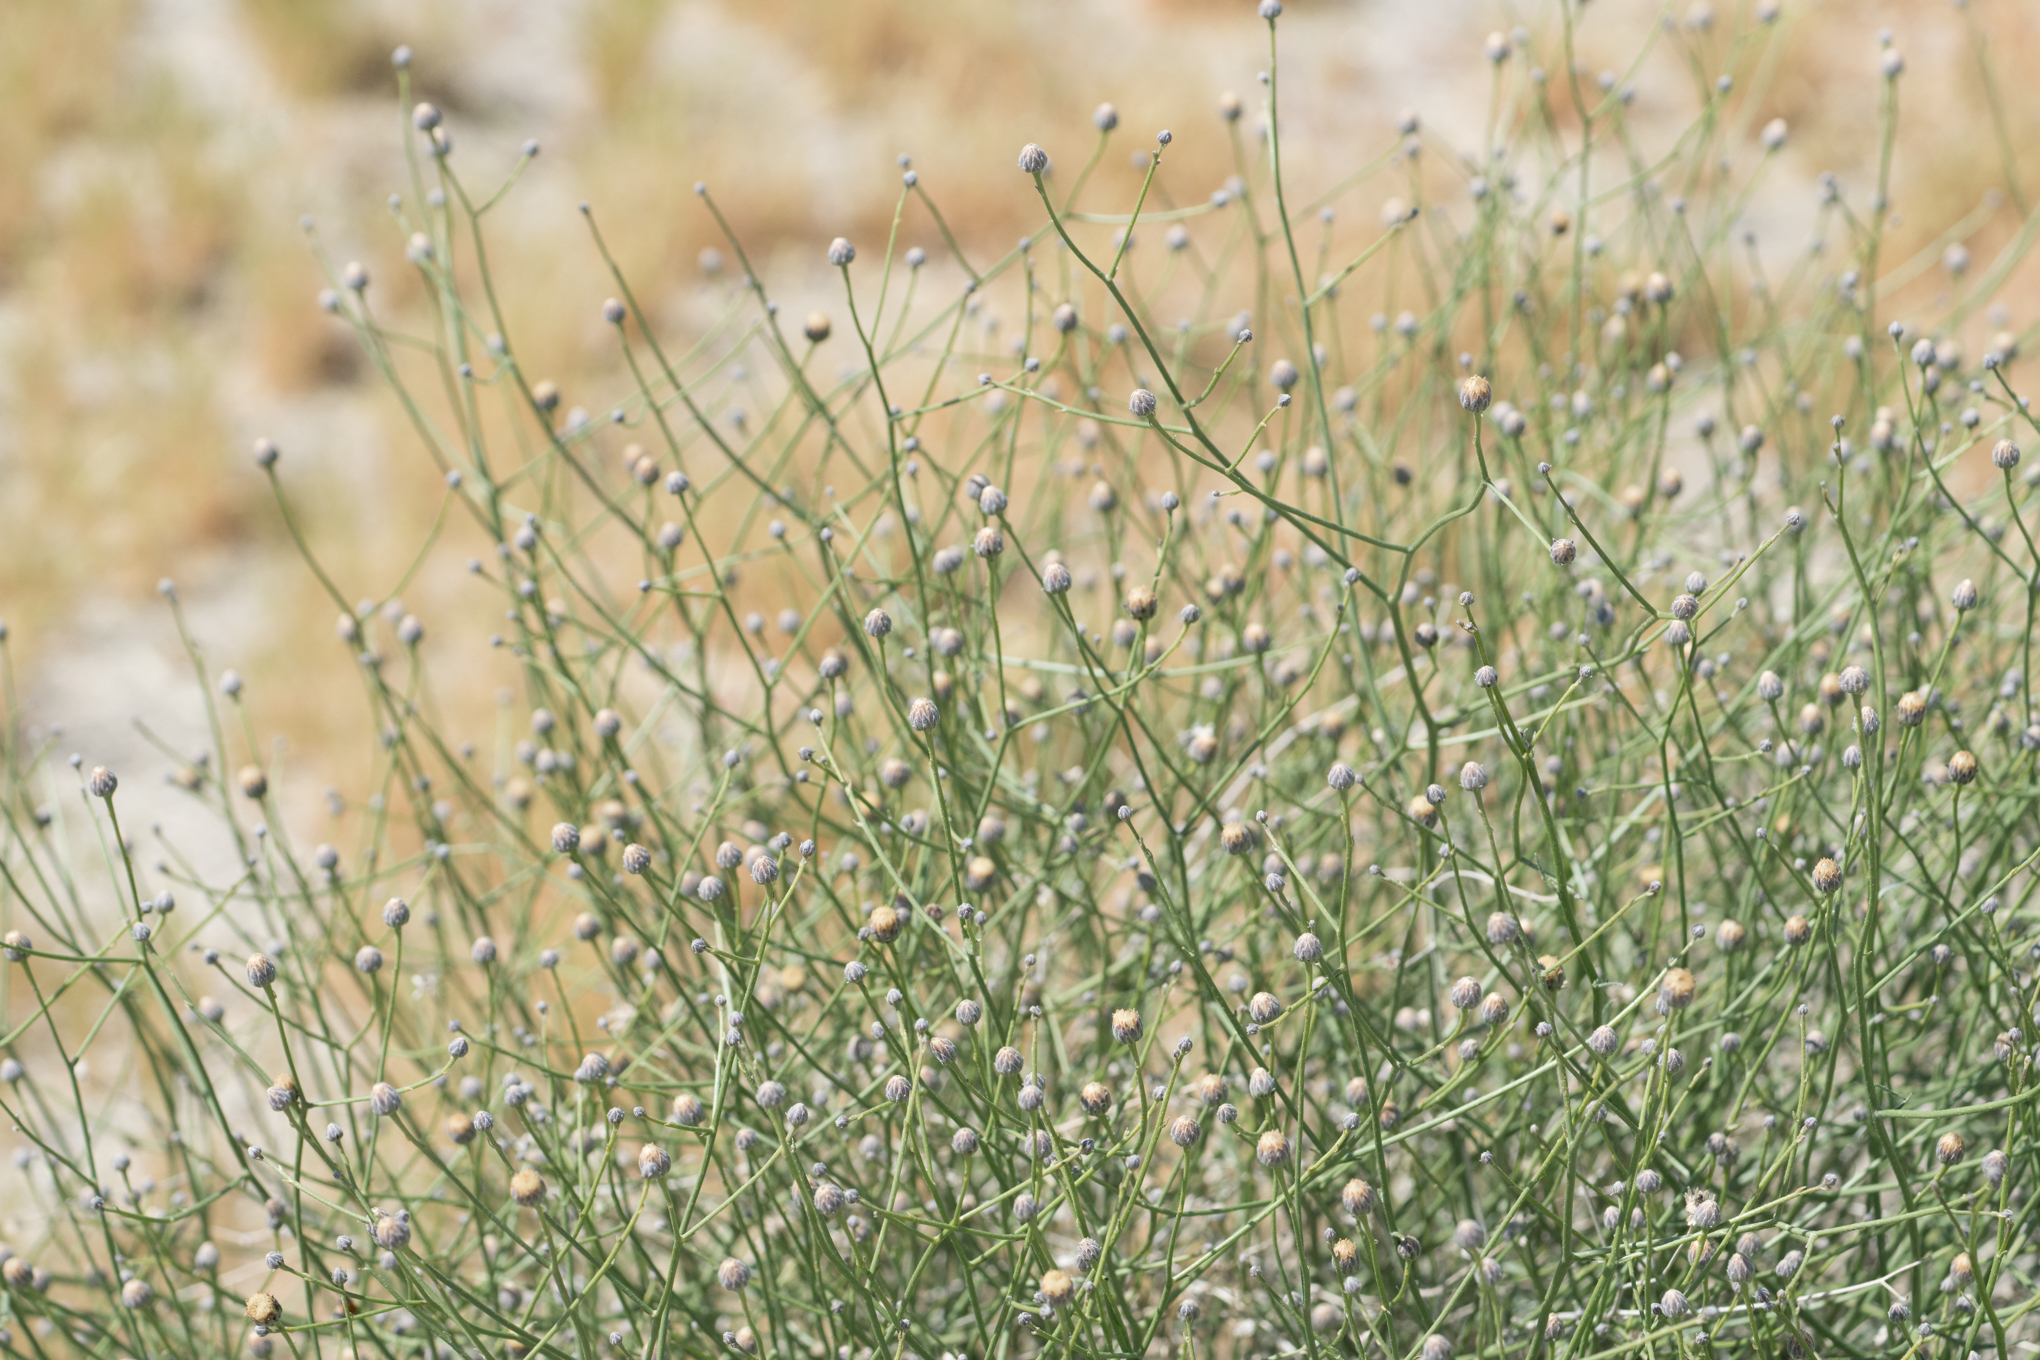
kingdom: Plantae
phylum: Tracheophyta
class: Magnoliopsida
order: Asterales
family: Asteraceae
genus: Bebbia
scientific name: Bebbia juncea
